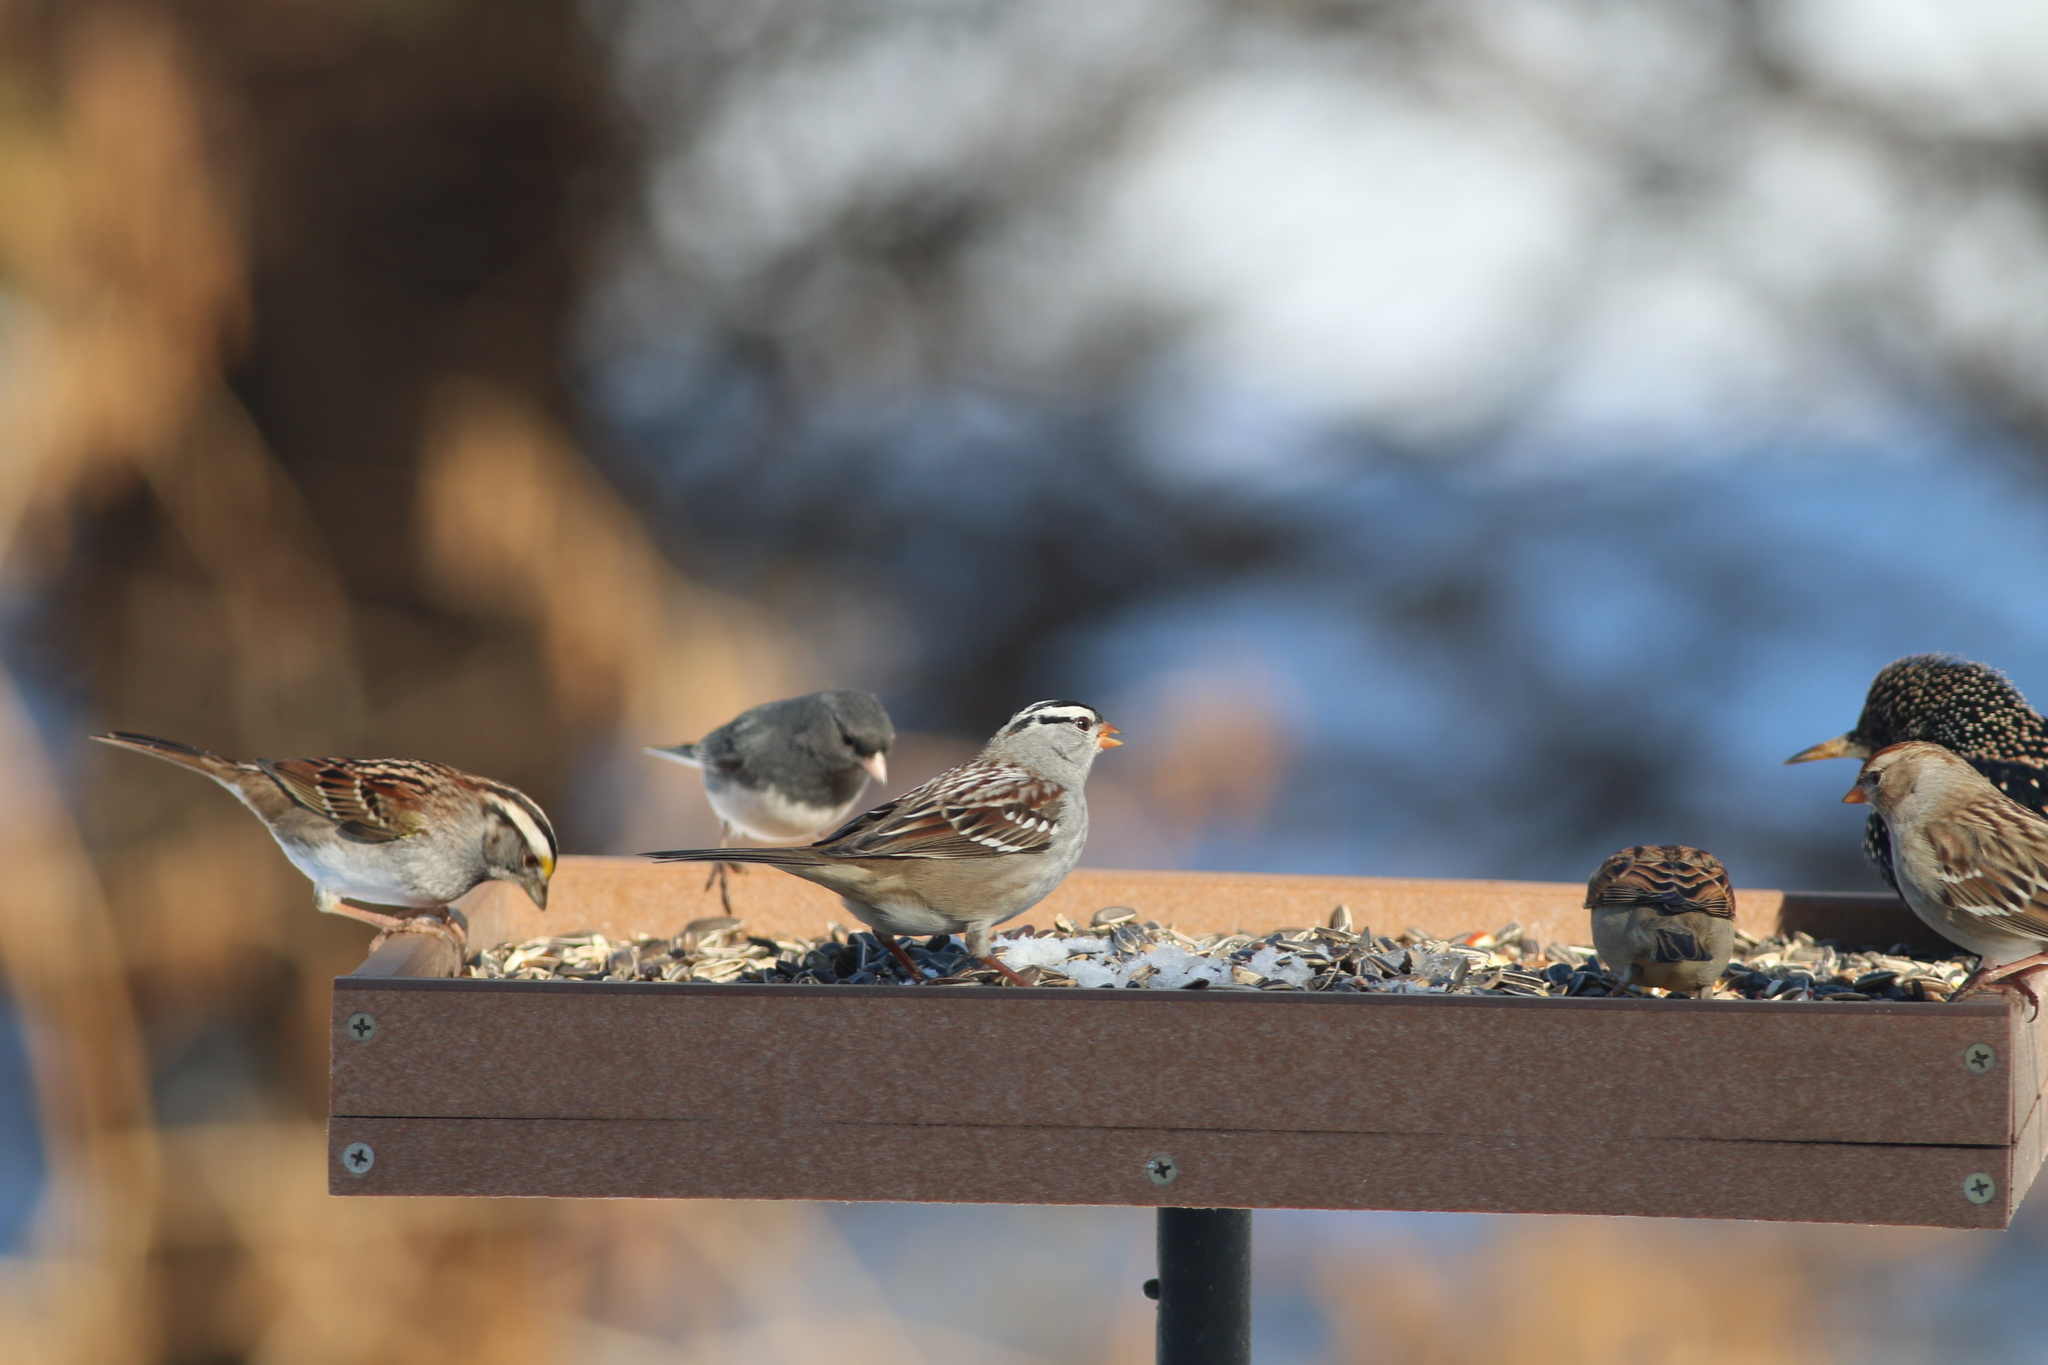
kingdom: Animalia
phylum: Chordata
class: Aves
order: Passeriformes
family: Passerellidae
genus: Zonotrichia
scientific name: Zonotrichia albicollis
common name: White-throated sparrow
